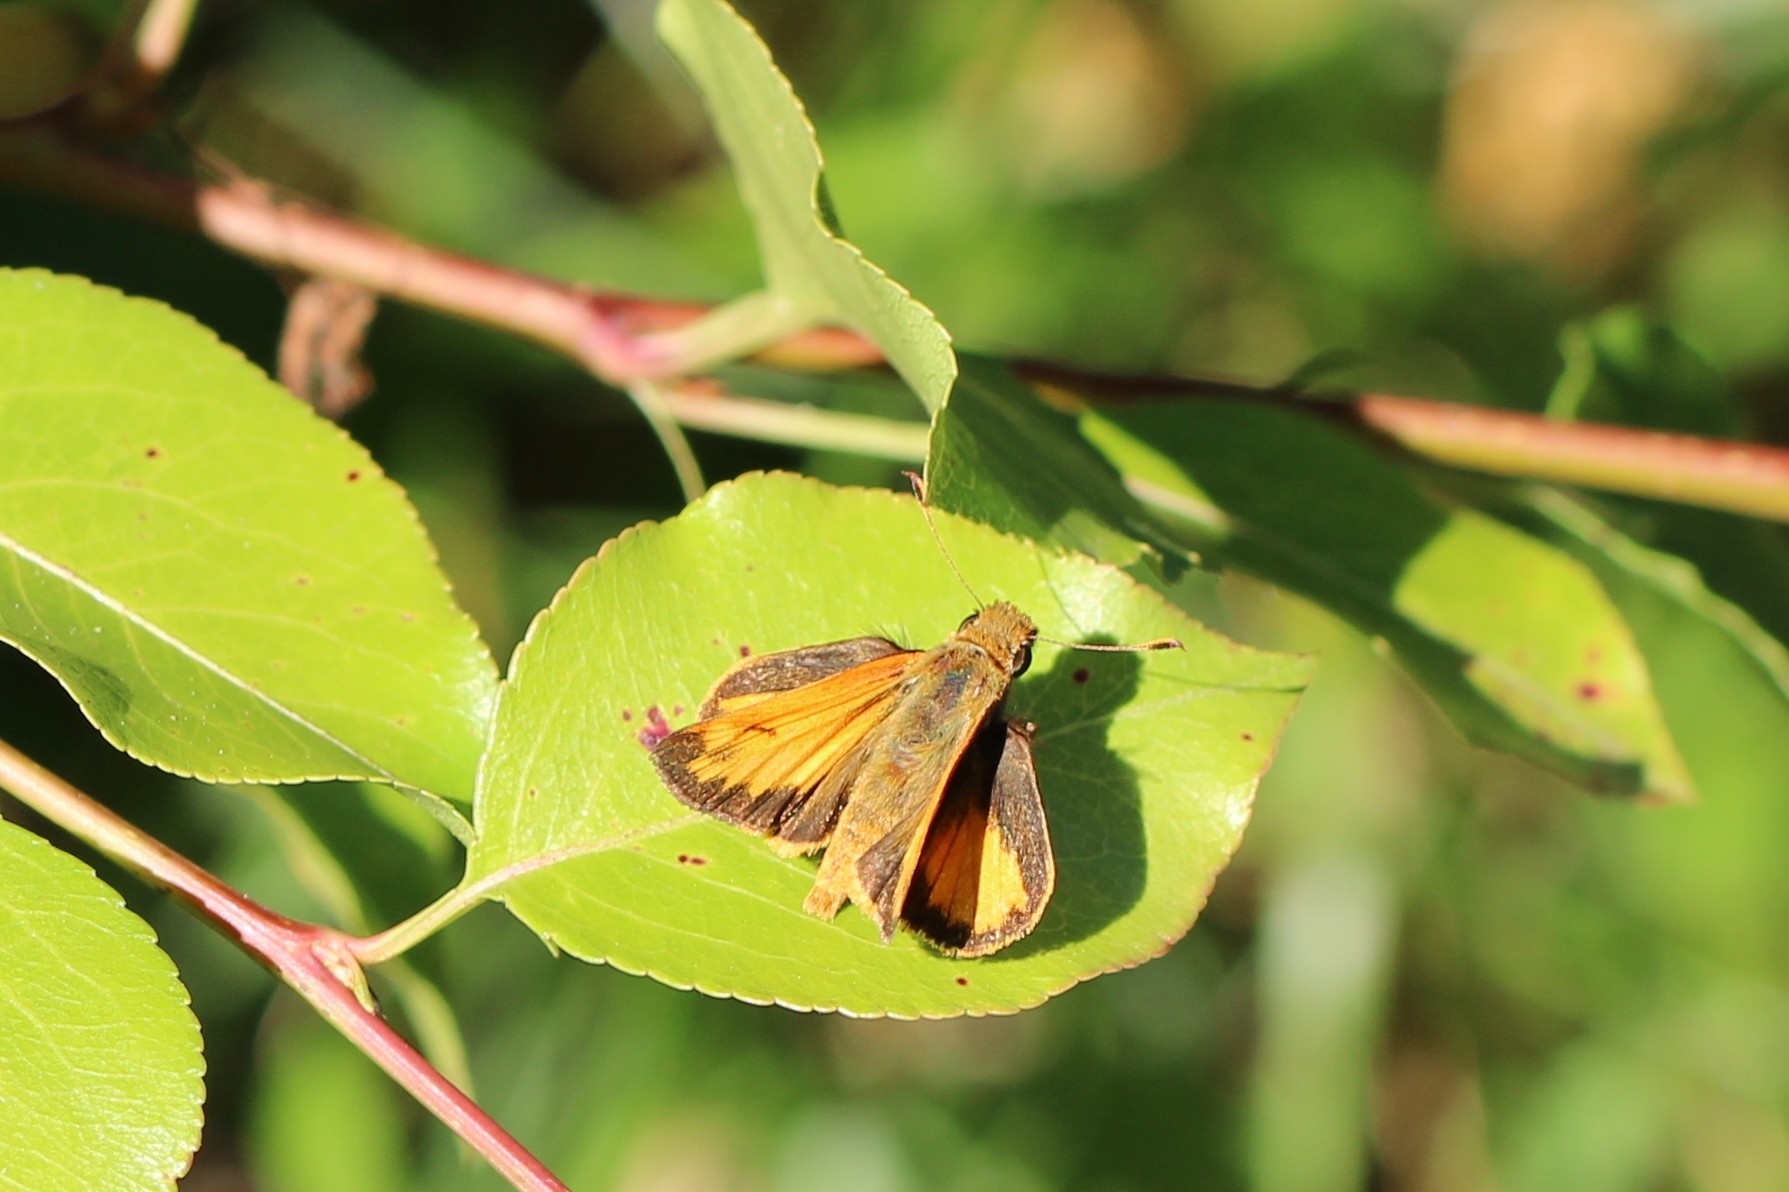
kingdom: Animalia
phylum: Arthropoda
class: Insecta
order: Lepidoptera
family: Hesperiidae
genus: Lon
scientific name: Lon zabulon
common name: Zabulon skipper
